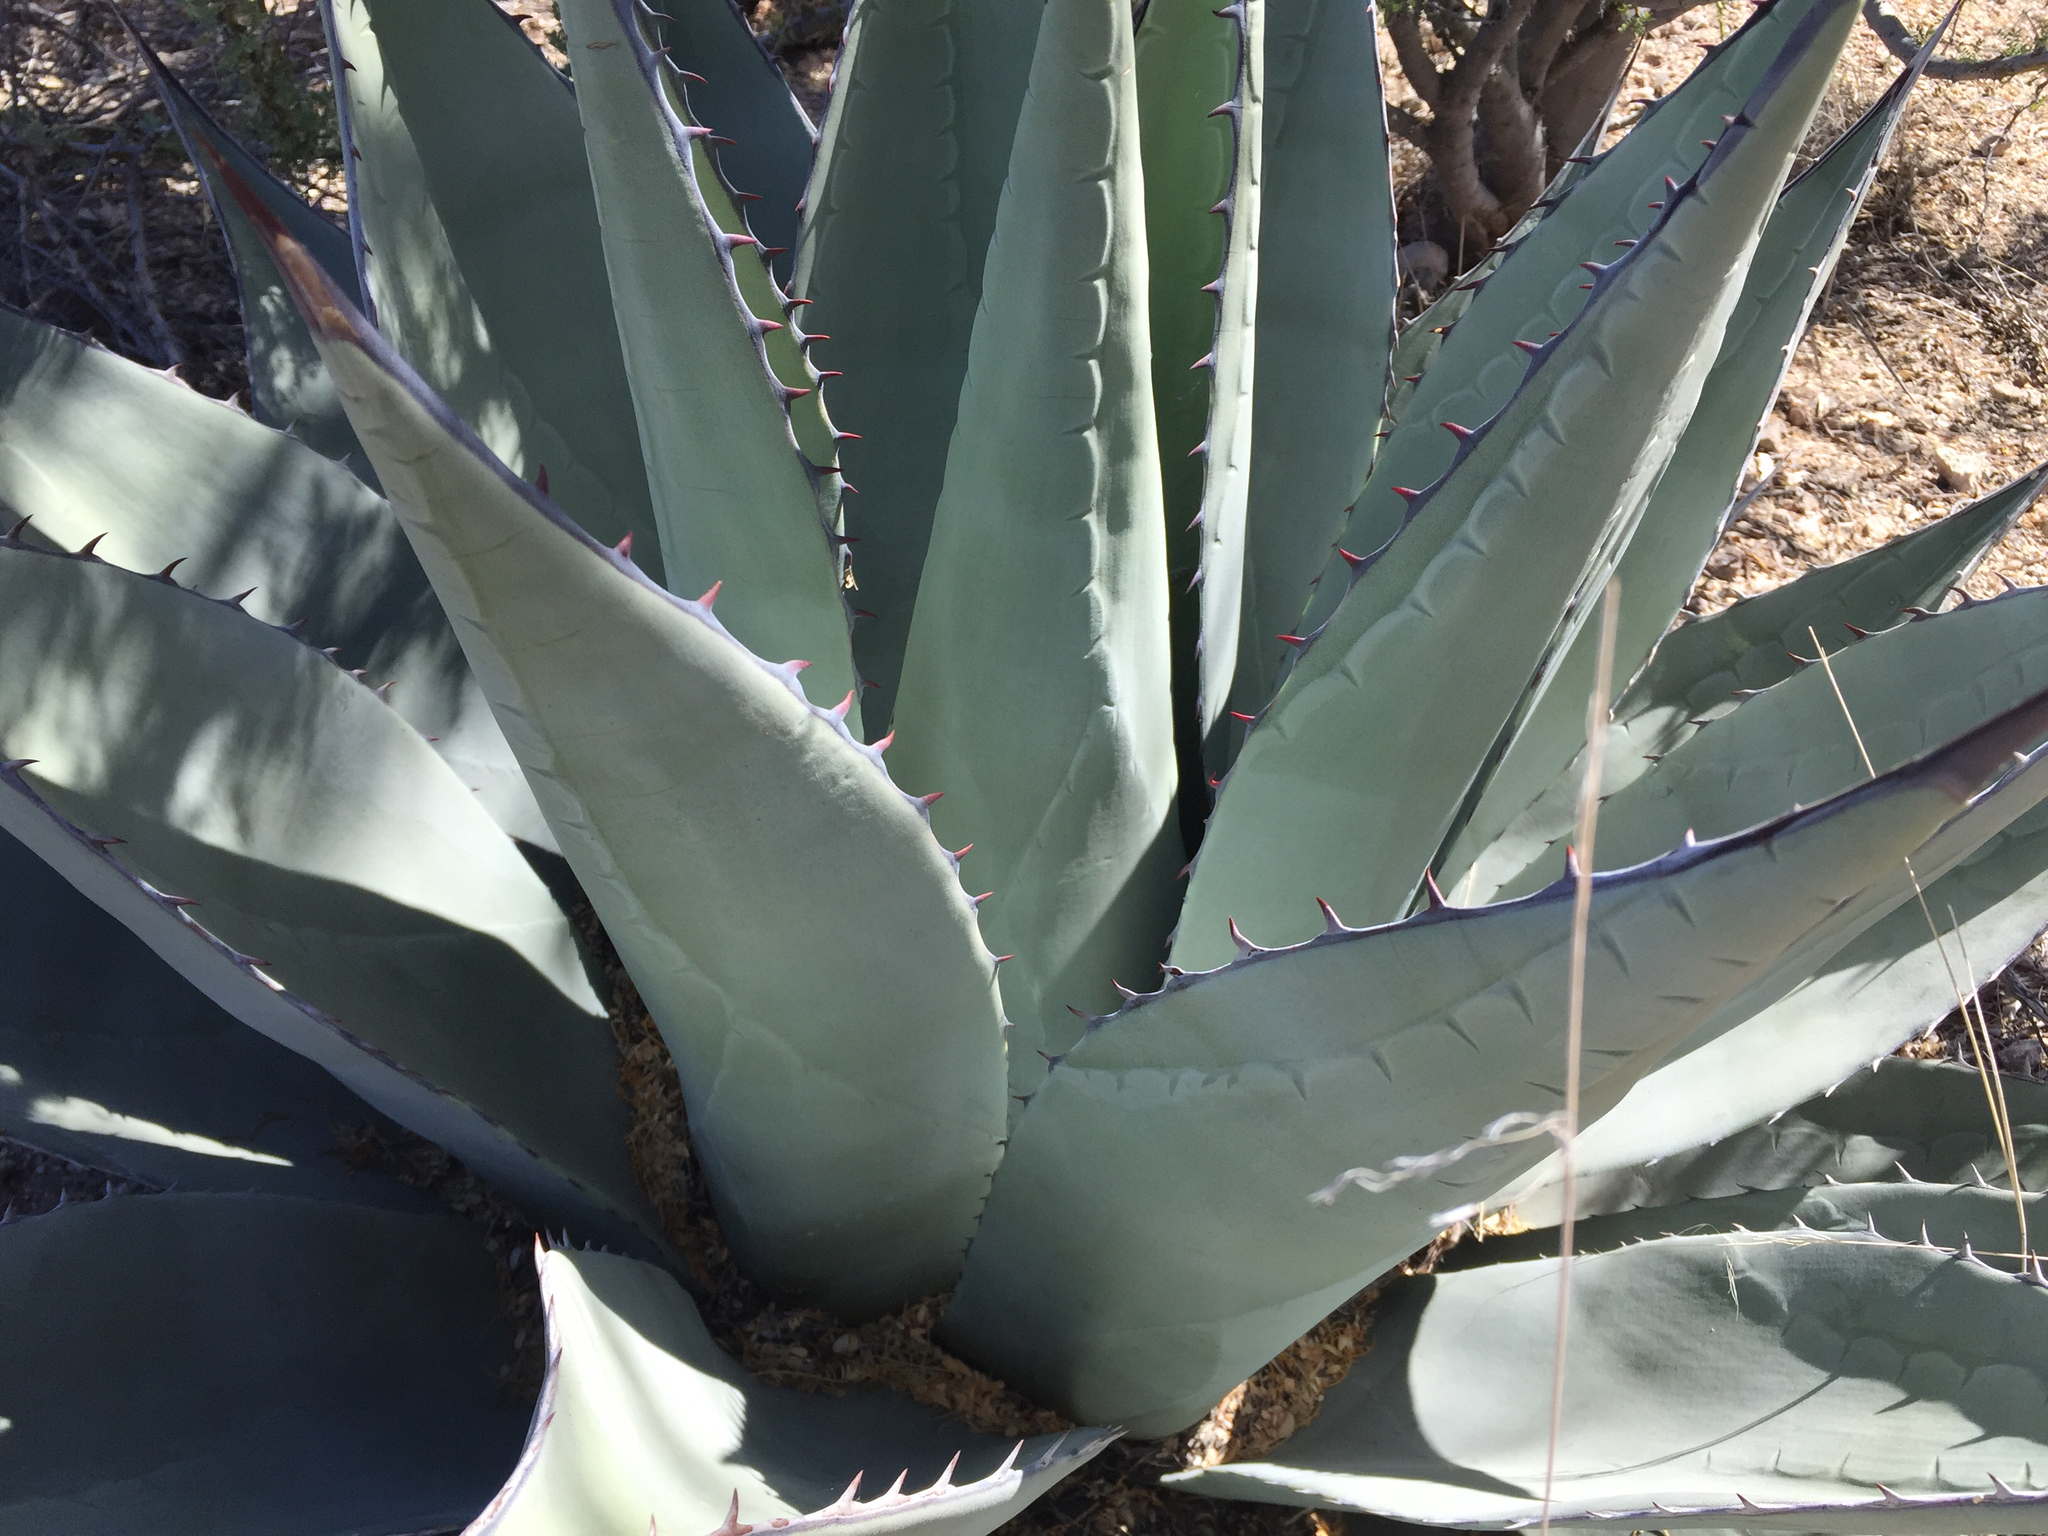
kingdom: Plantae
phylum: Tracheophyta
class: Liliopsida
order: Asparagales
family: Asparagaceae
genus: Agave
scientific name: Agave parryi
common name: Parry's agave
